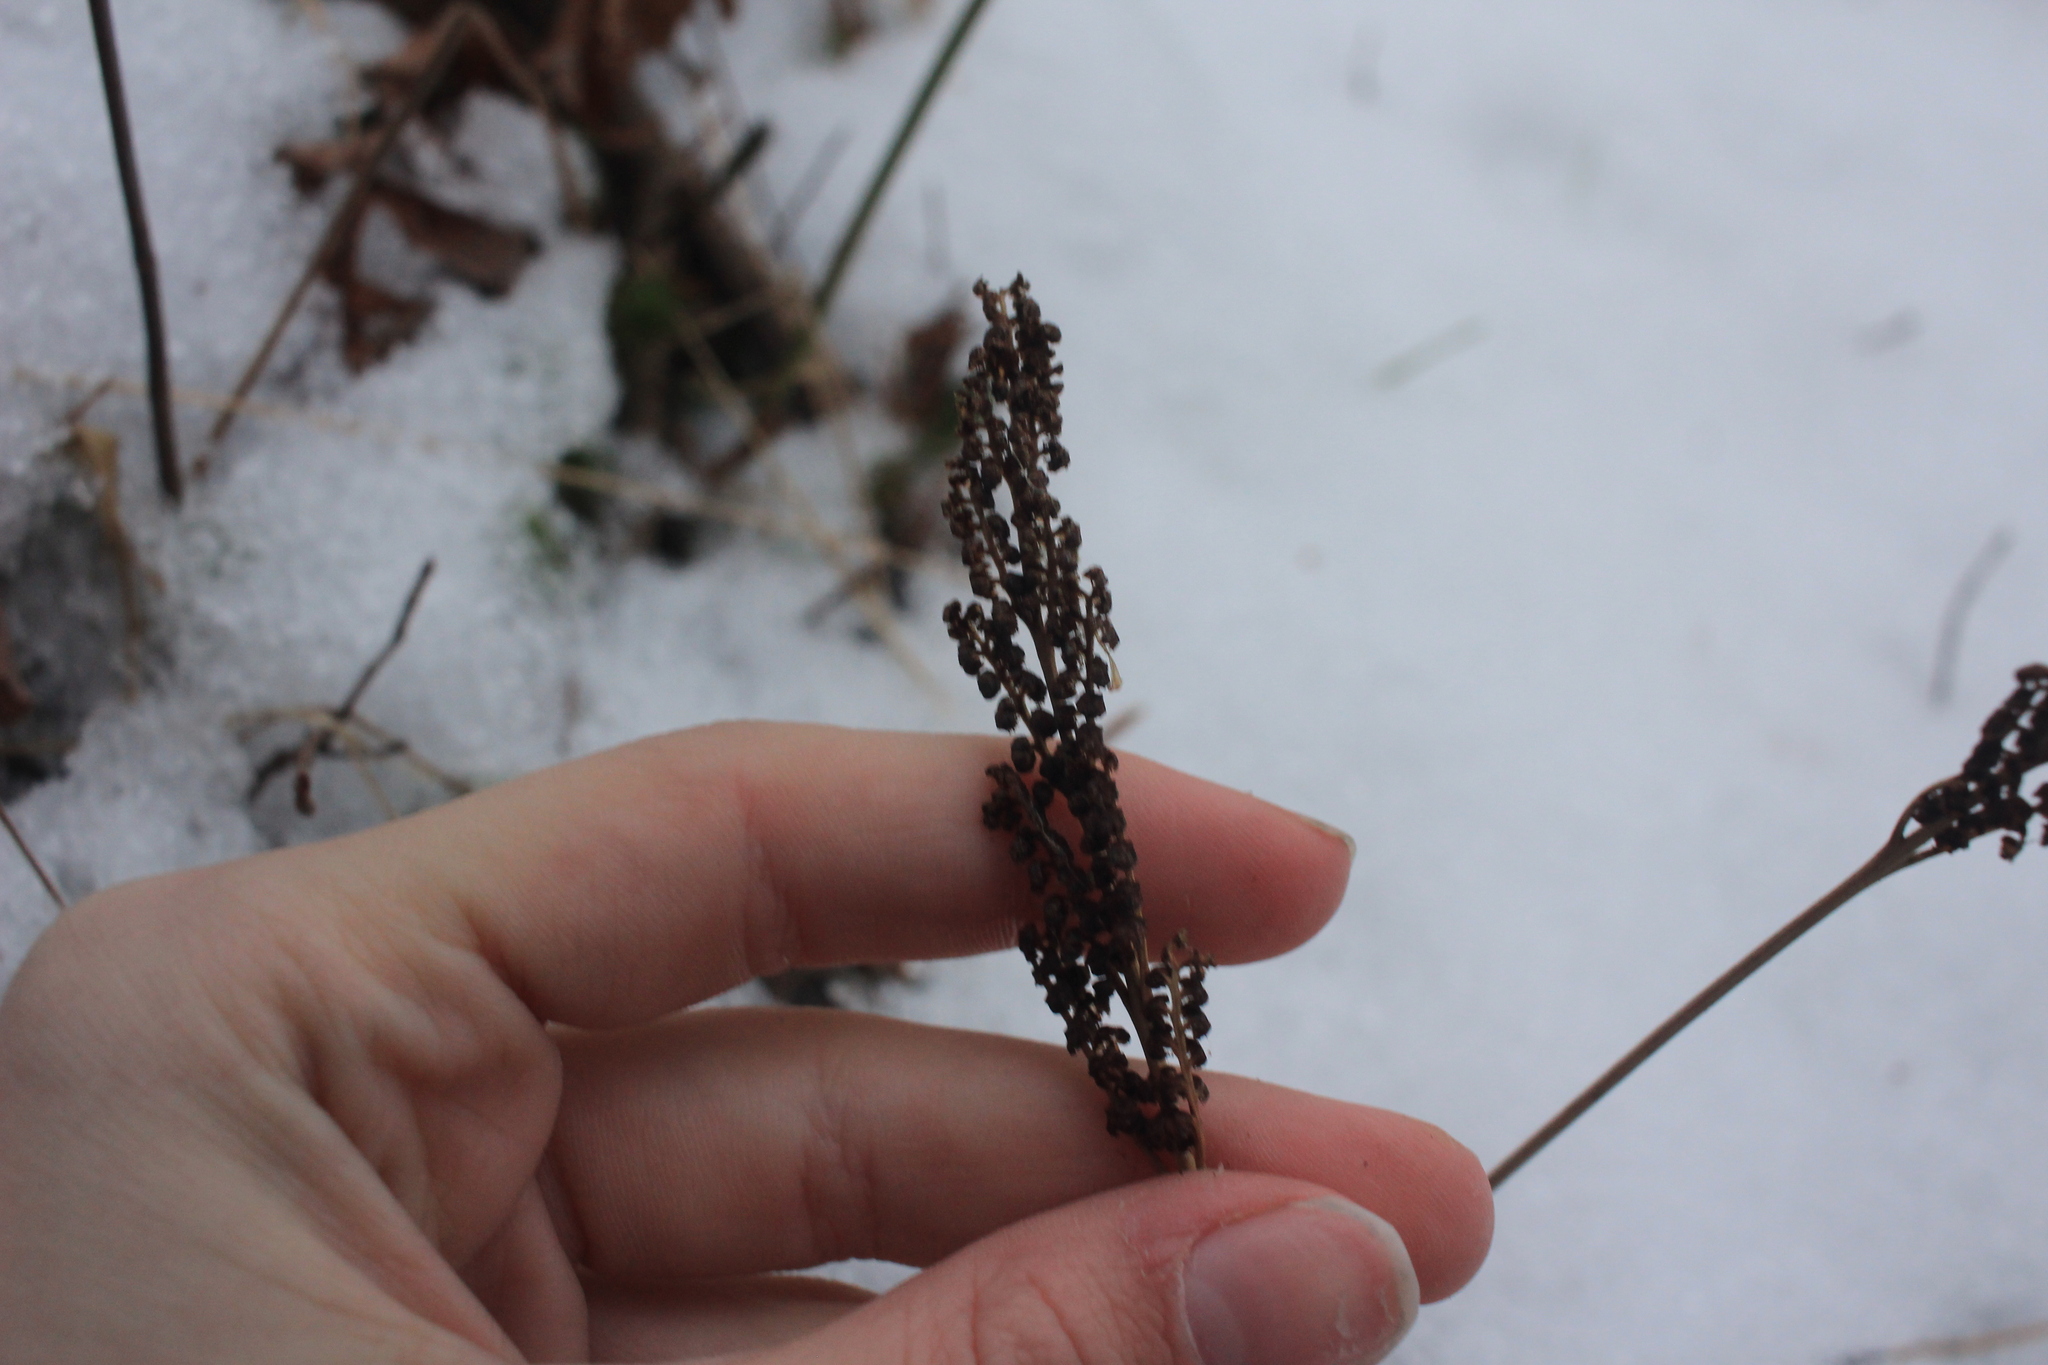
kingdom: Plantae
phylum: Tracheophyta
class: Polypodiopsida
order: Polypodiales
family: Onocleaceae
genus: Onoclea
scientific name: Onoclea sensibilis
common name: Sensitive fern
